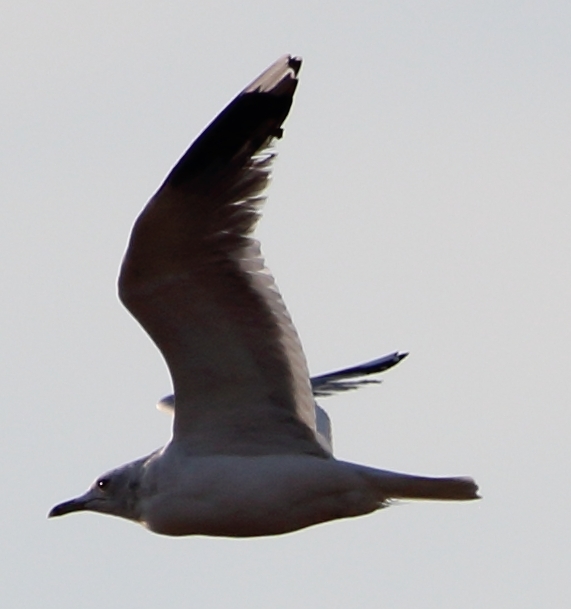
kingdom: Animalia
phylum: Chordata
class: Aves
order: Charadriiformes
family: Laridae
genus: Larus
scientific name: Larus canus
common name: Mew gull
